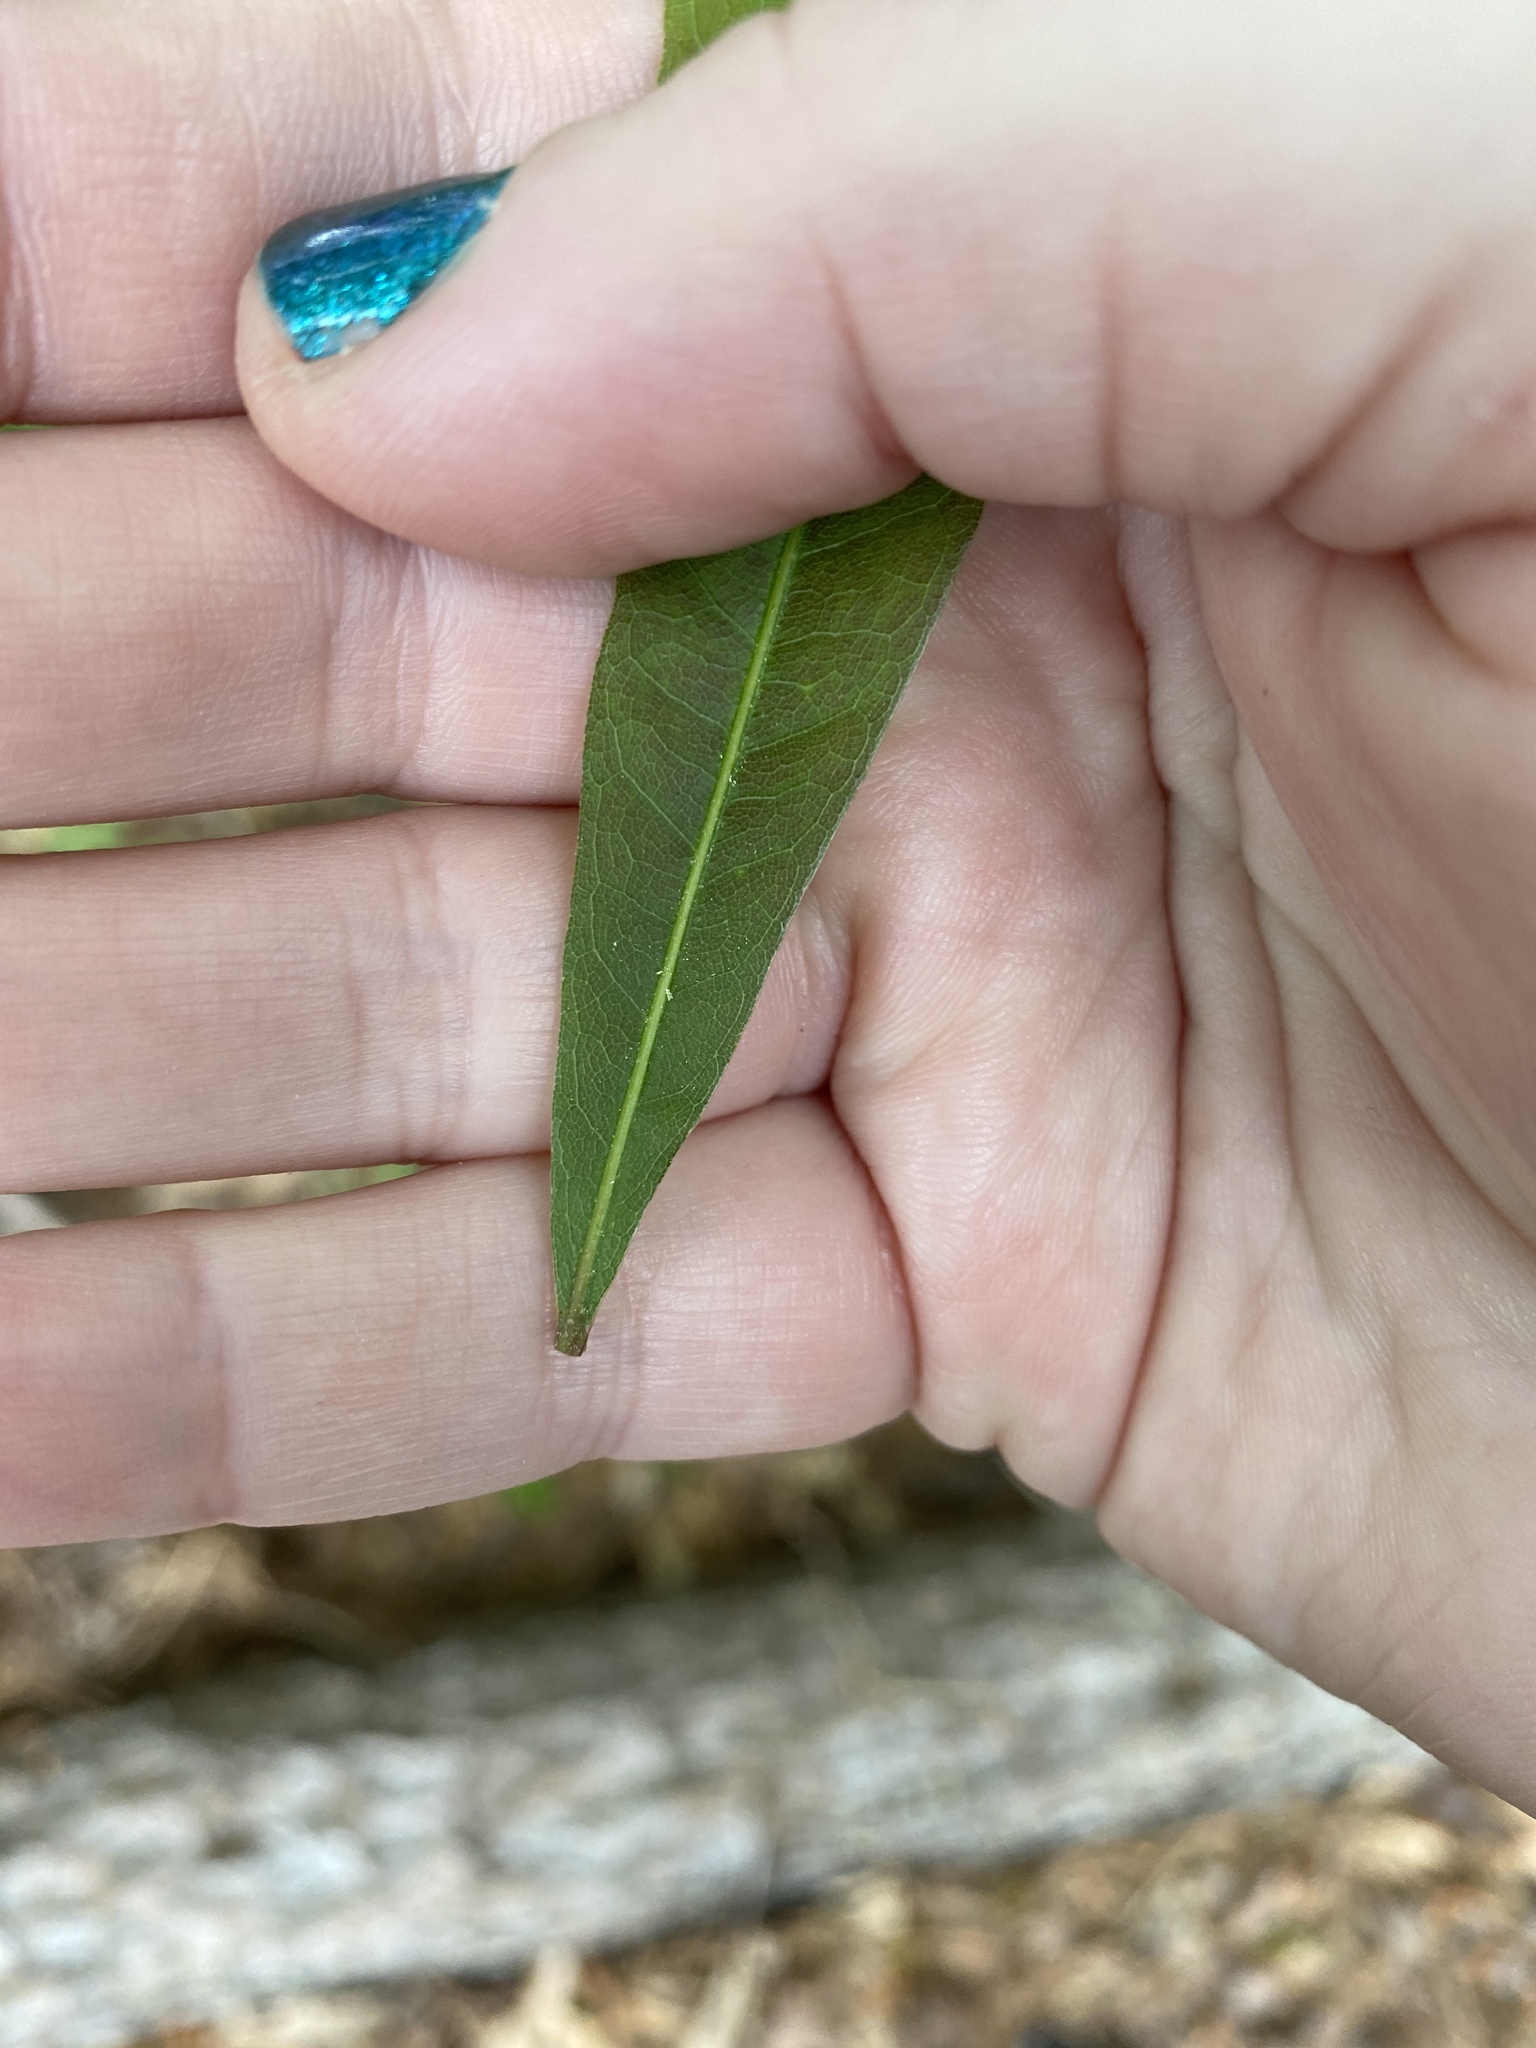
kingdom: Plantae
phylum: Tracheophyta
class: Magnoliopsida
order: Fagales
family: Fagaceae
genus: Quercus
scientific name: Quercus nigra
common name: Water oak
